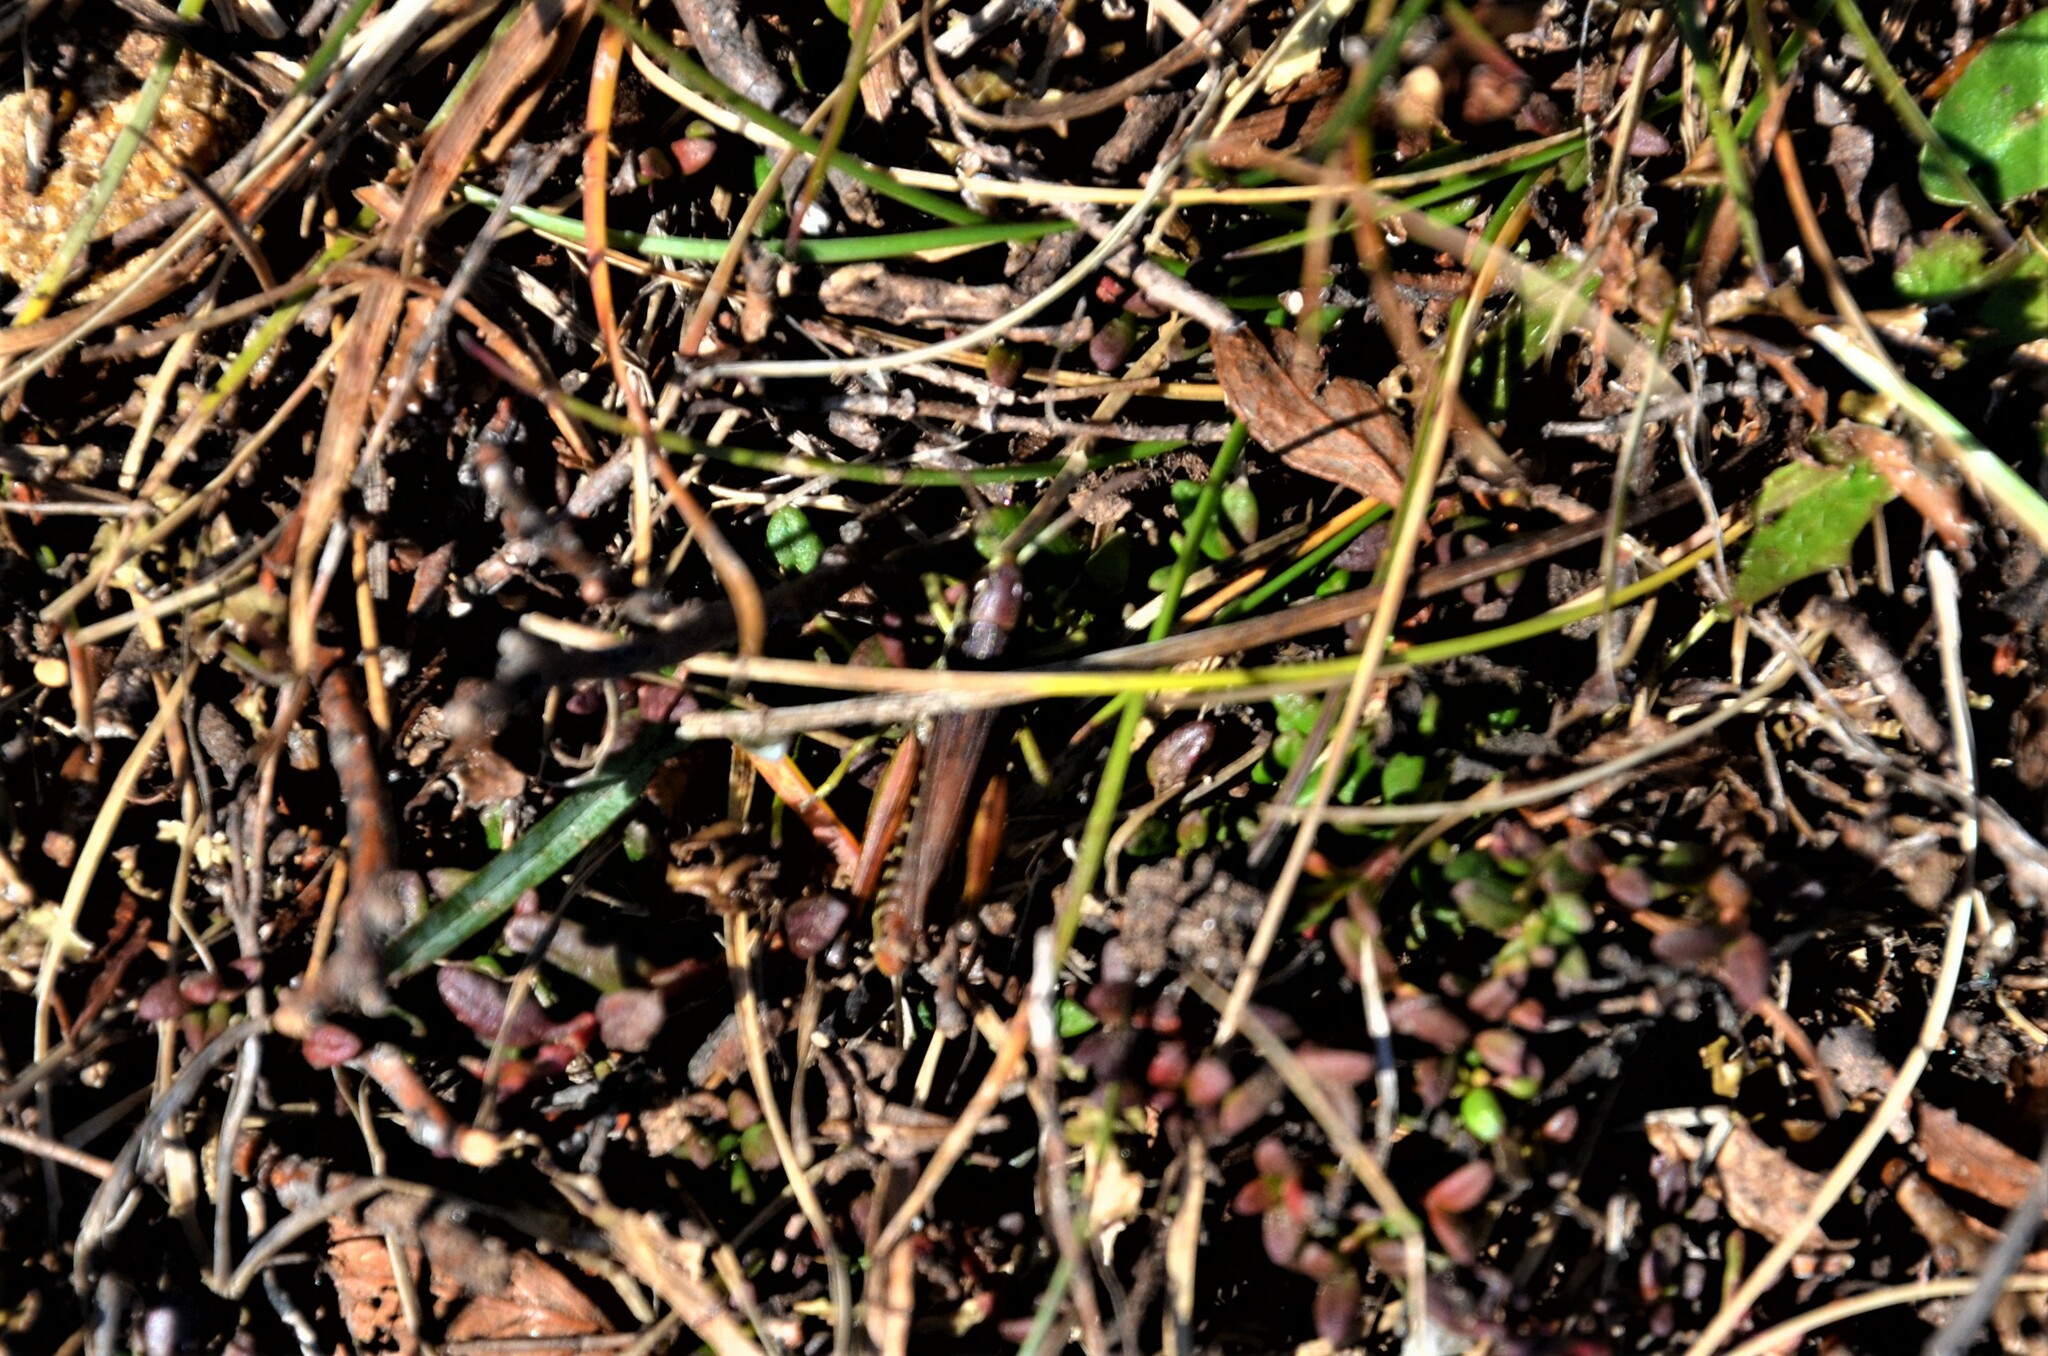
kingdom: Animalia
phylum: Arthropoda
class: Insecta
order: Orthoptera
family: Acrididae
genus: Podisma
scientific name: Podisma pedestris
